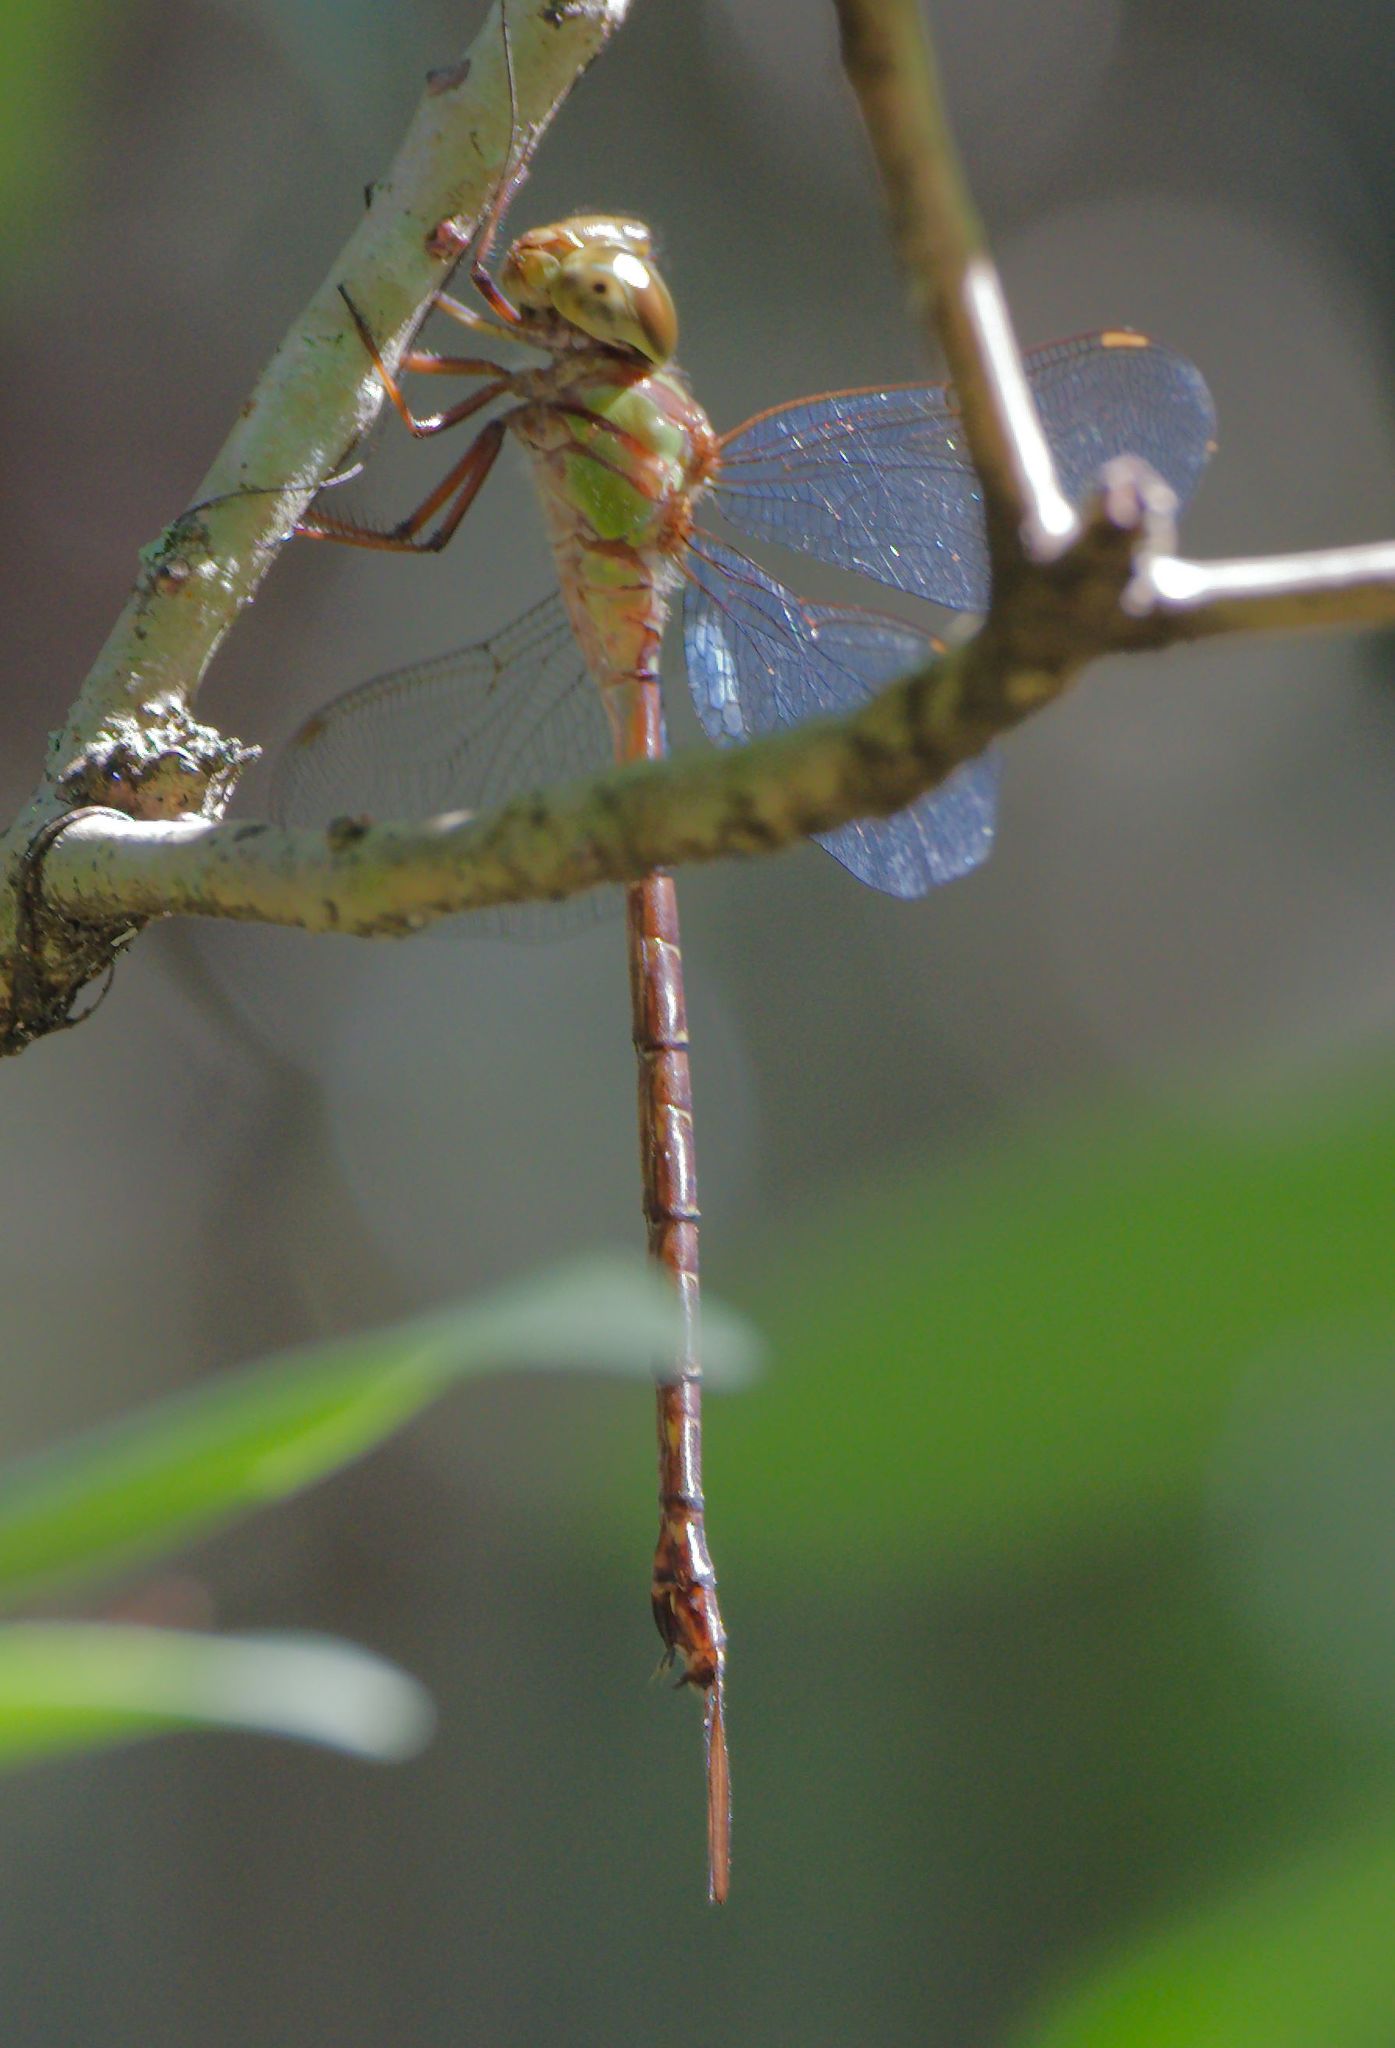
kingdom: Animalia
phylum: Arthropoda
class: Insecta
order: Odonata
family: Aeshnidae
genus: Triacanthagyna
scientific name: Triacanthagyna trifida
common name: Phantom darner
